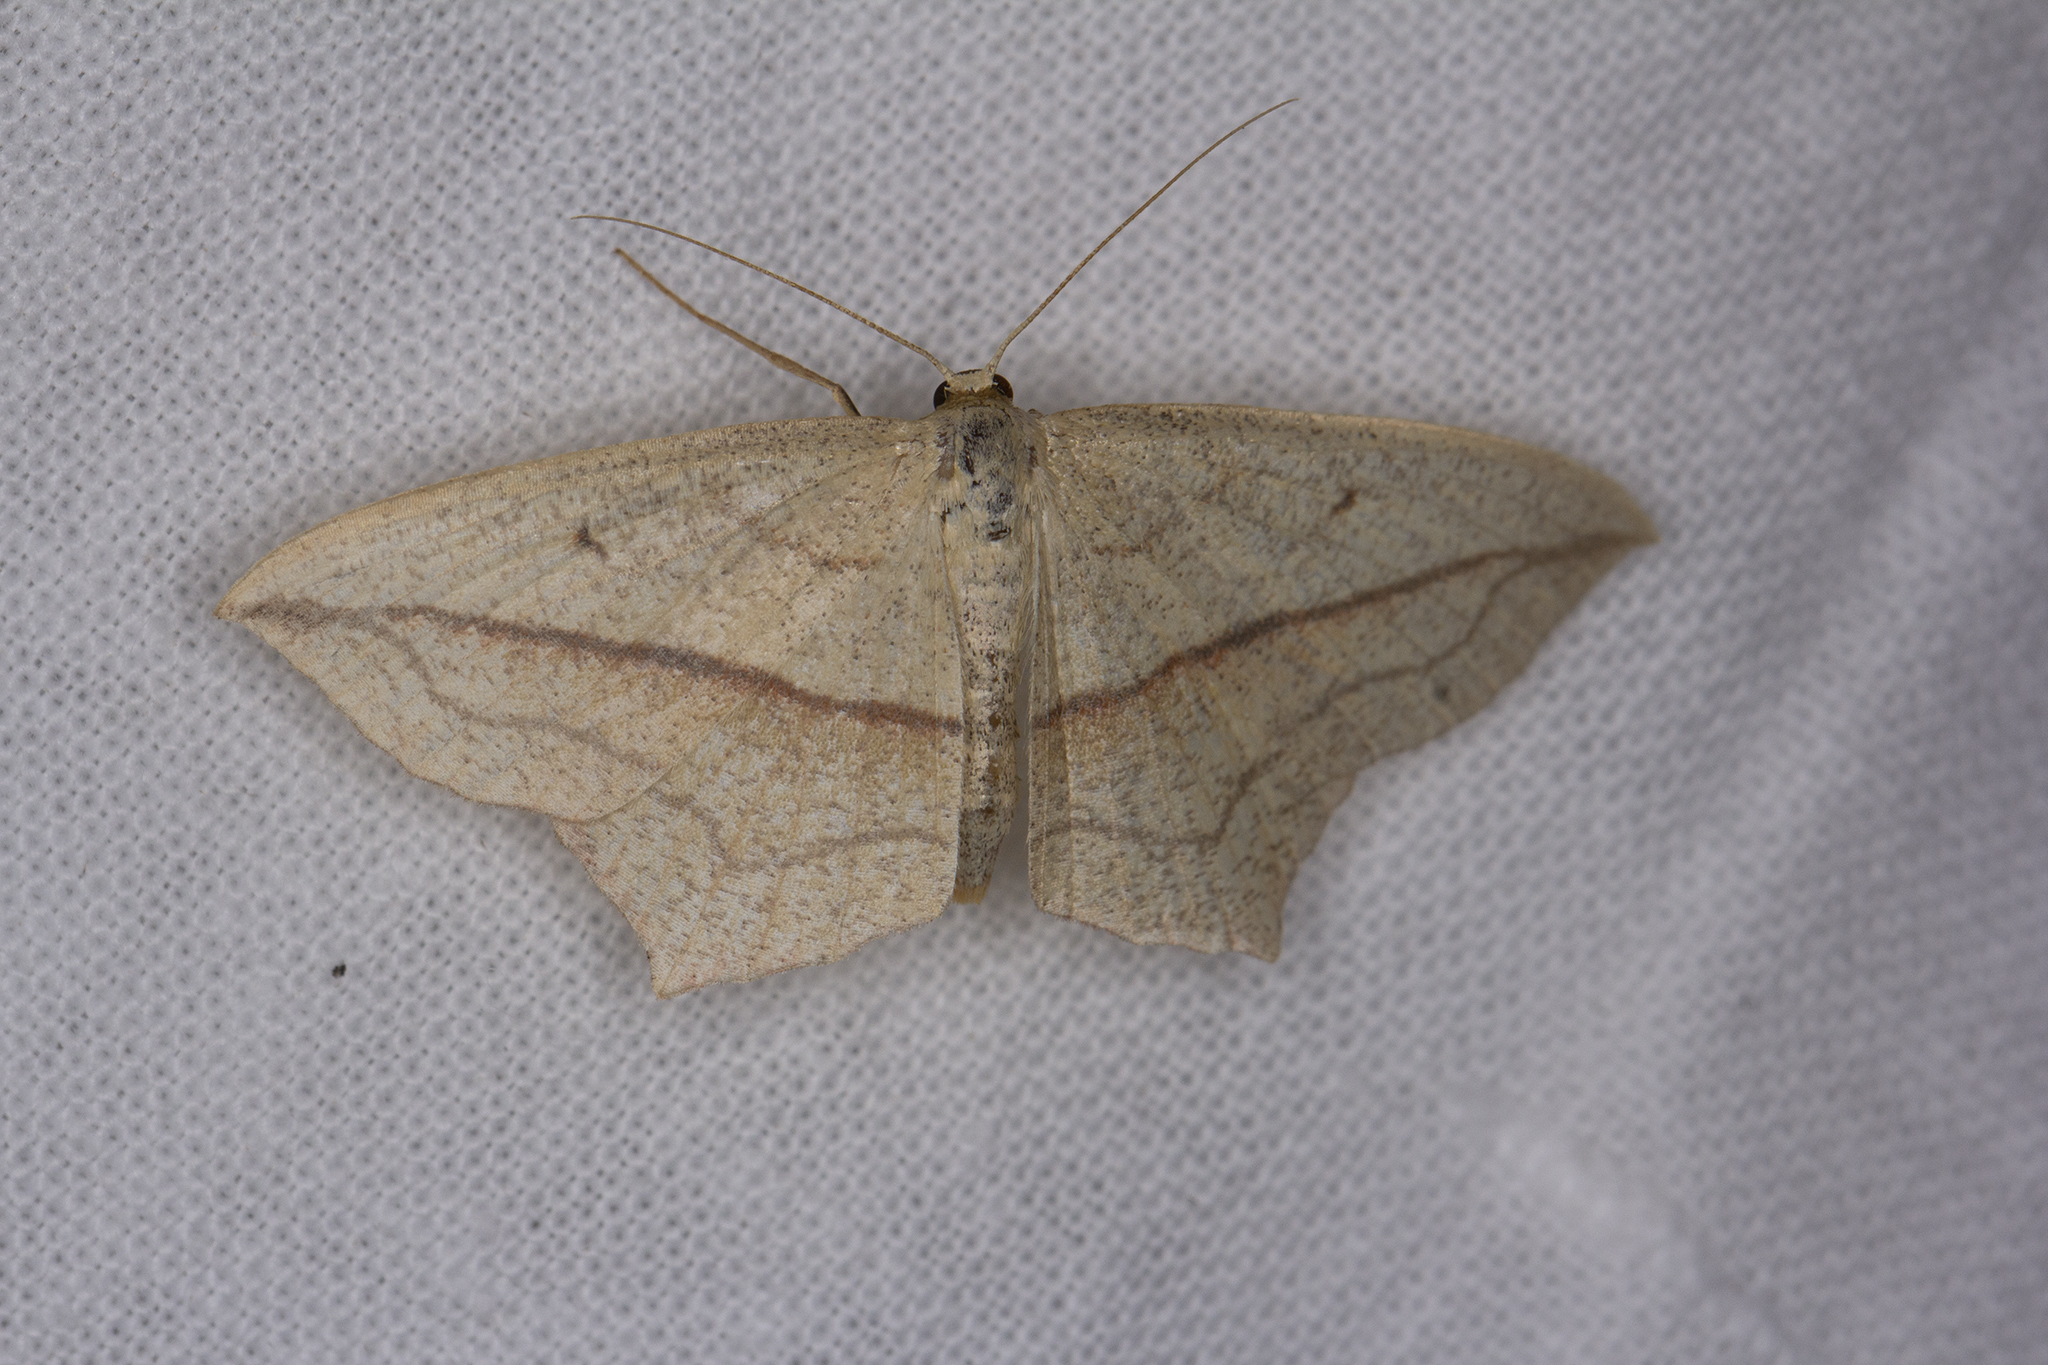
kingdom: Animalia
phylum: Arthropoda
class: Insecta
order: Lepidoptera
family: Geometridae
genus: Timandra
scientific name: Timandra comae
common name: Blood-vein
